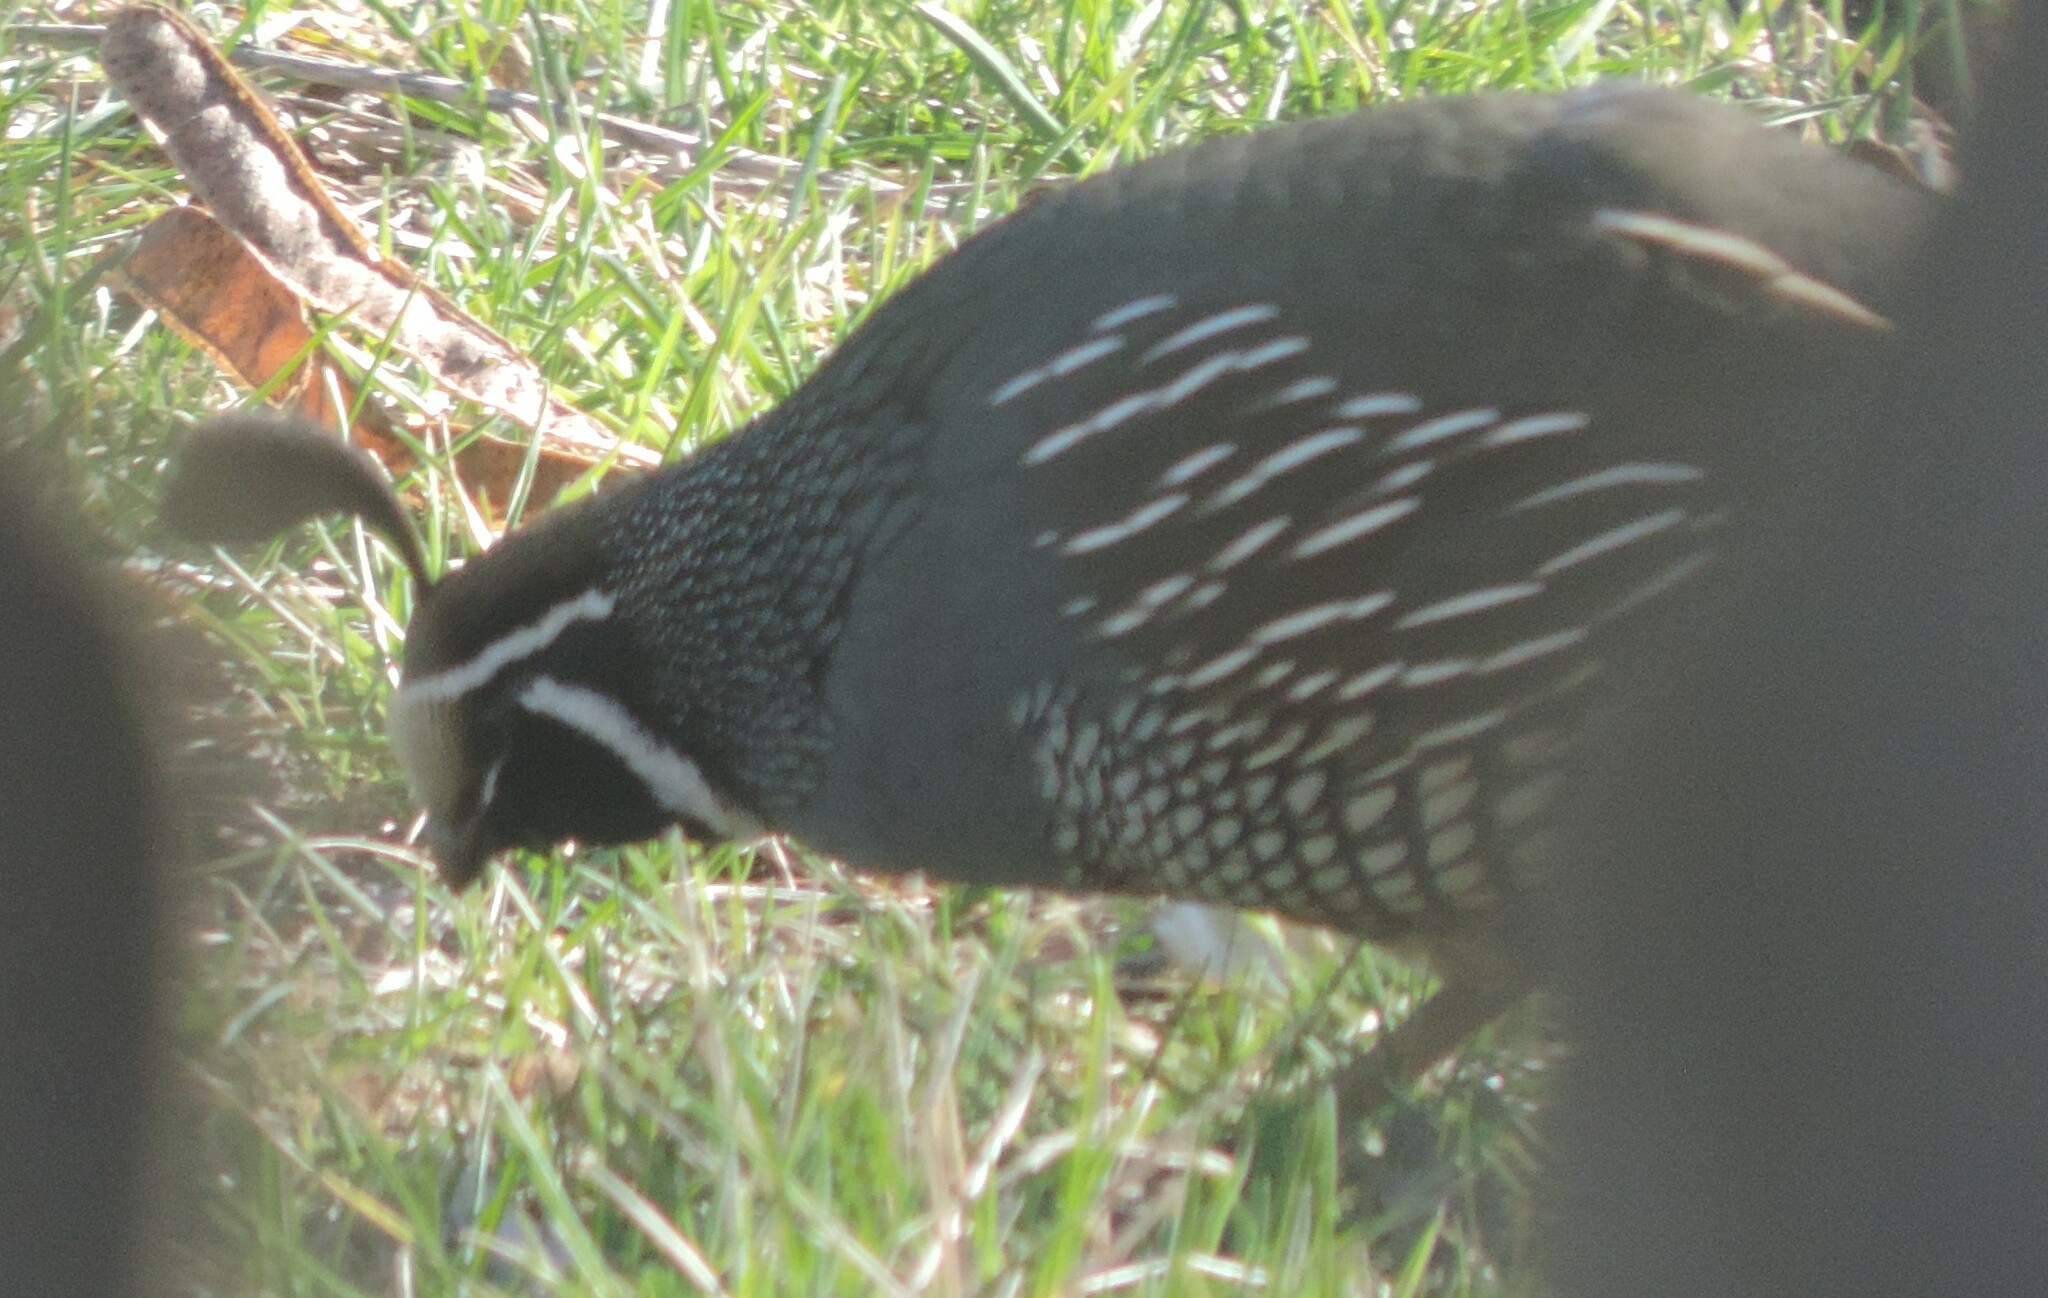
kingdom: Animalia
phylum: Chordata
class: Aves
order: Galliformes
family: Odontophoridae
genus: Callipepla
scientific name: Callipepla californica
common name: California quail
